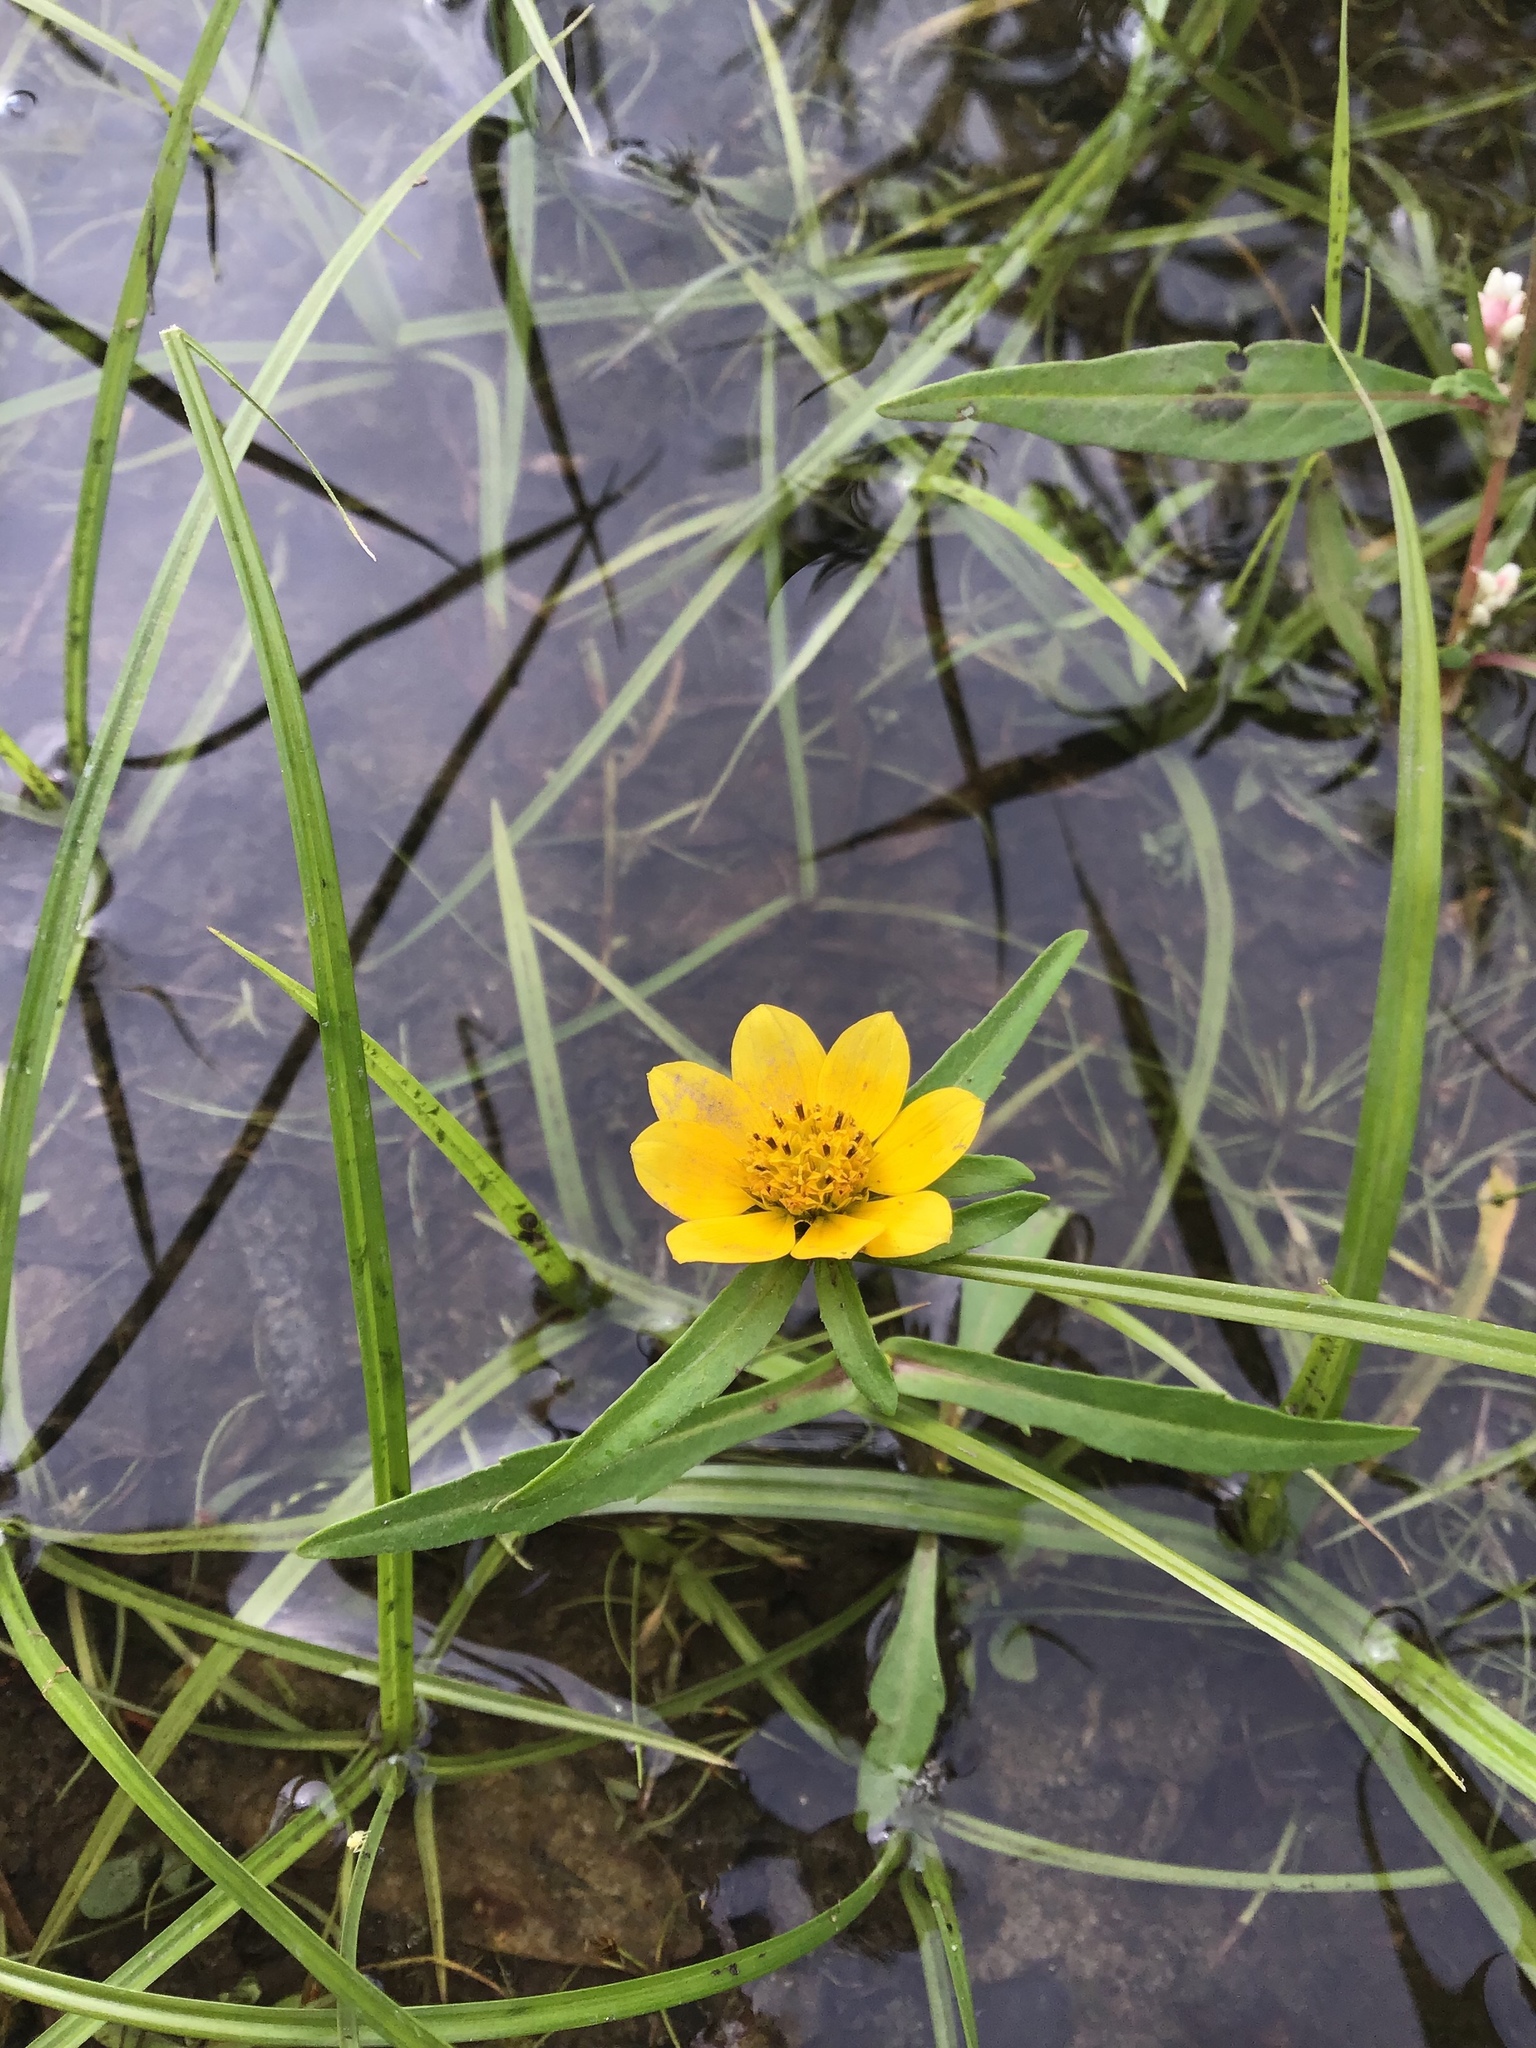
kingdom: Plantae
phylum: Tracheophyta
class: Magnoliopsida
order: Asterales
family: Asteraceae
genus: Bidens
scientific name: Bidens cernua
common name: Nodding bur-marigold
